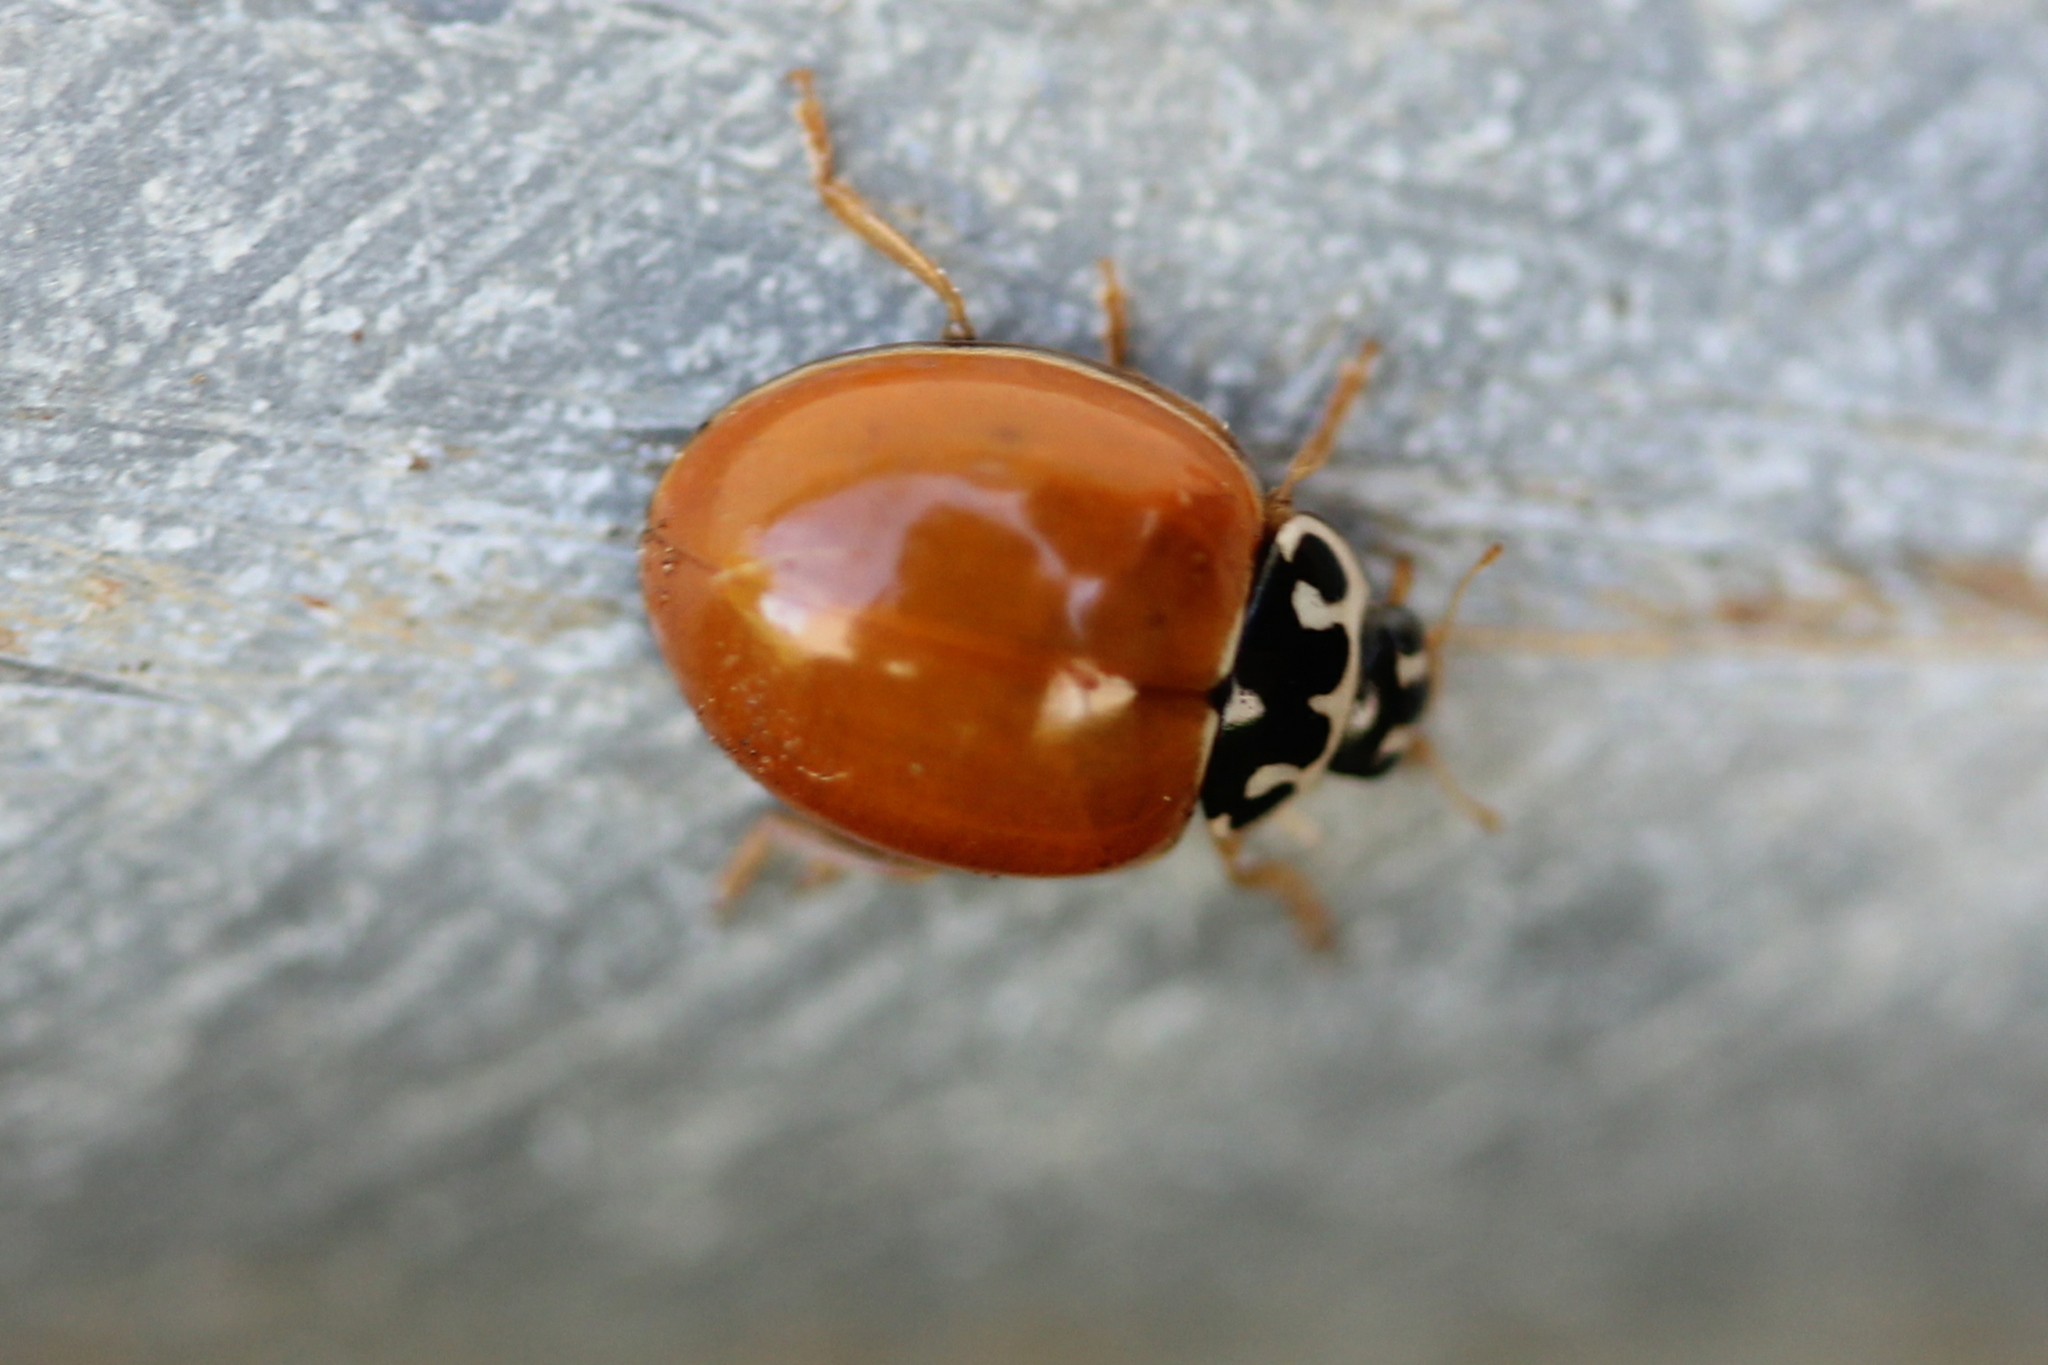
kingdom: Animalia
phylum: Arthropoda
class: Insecta
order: Coleoptera
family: Coccinellidae
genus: Cycloneda
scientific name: Cycloneda munda
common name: Polished lady beetle
